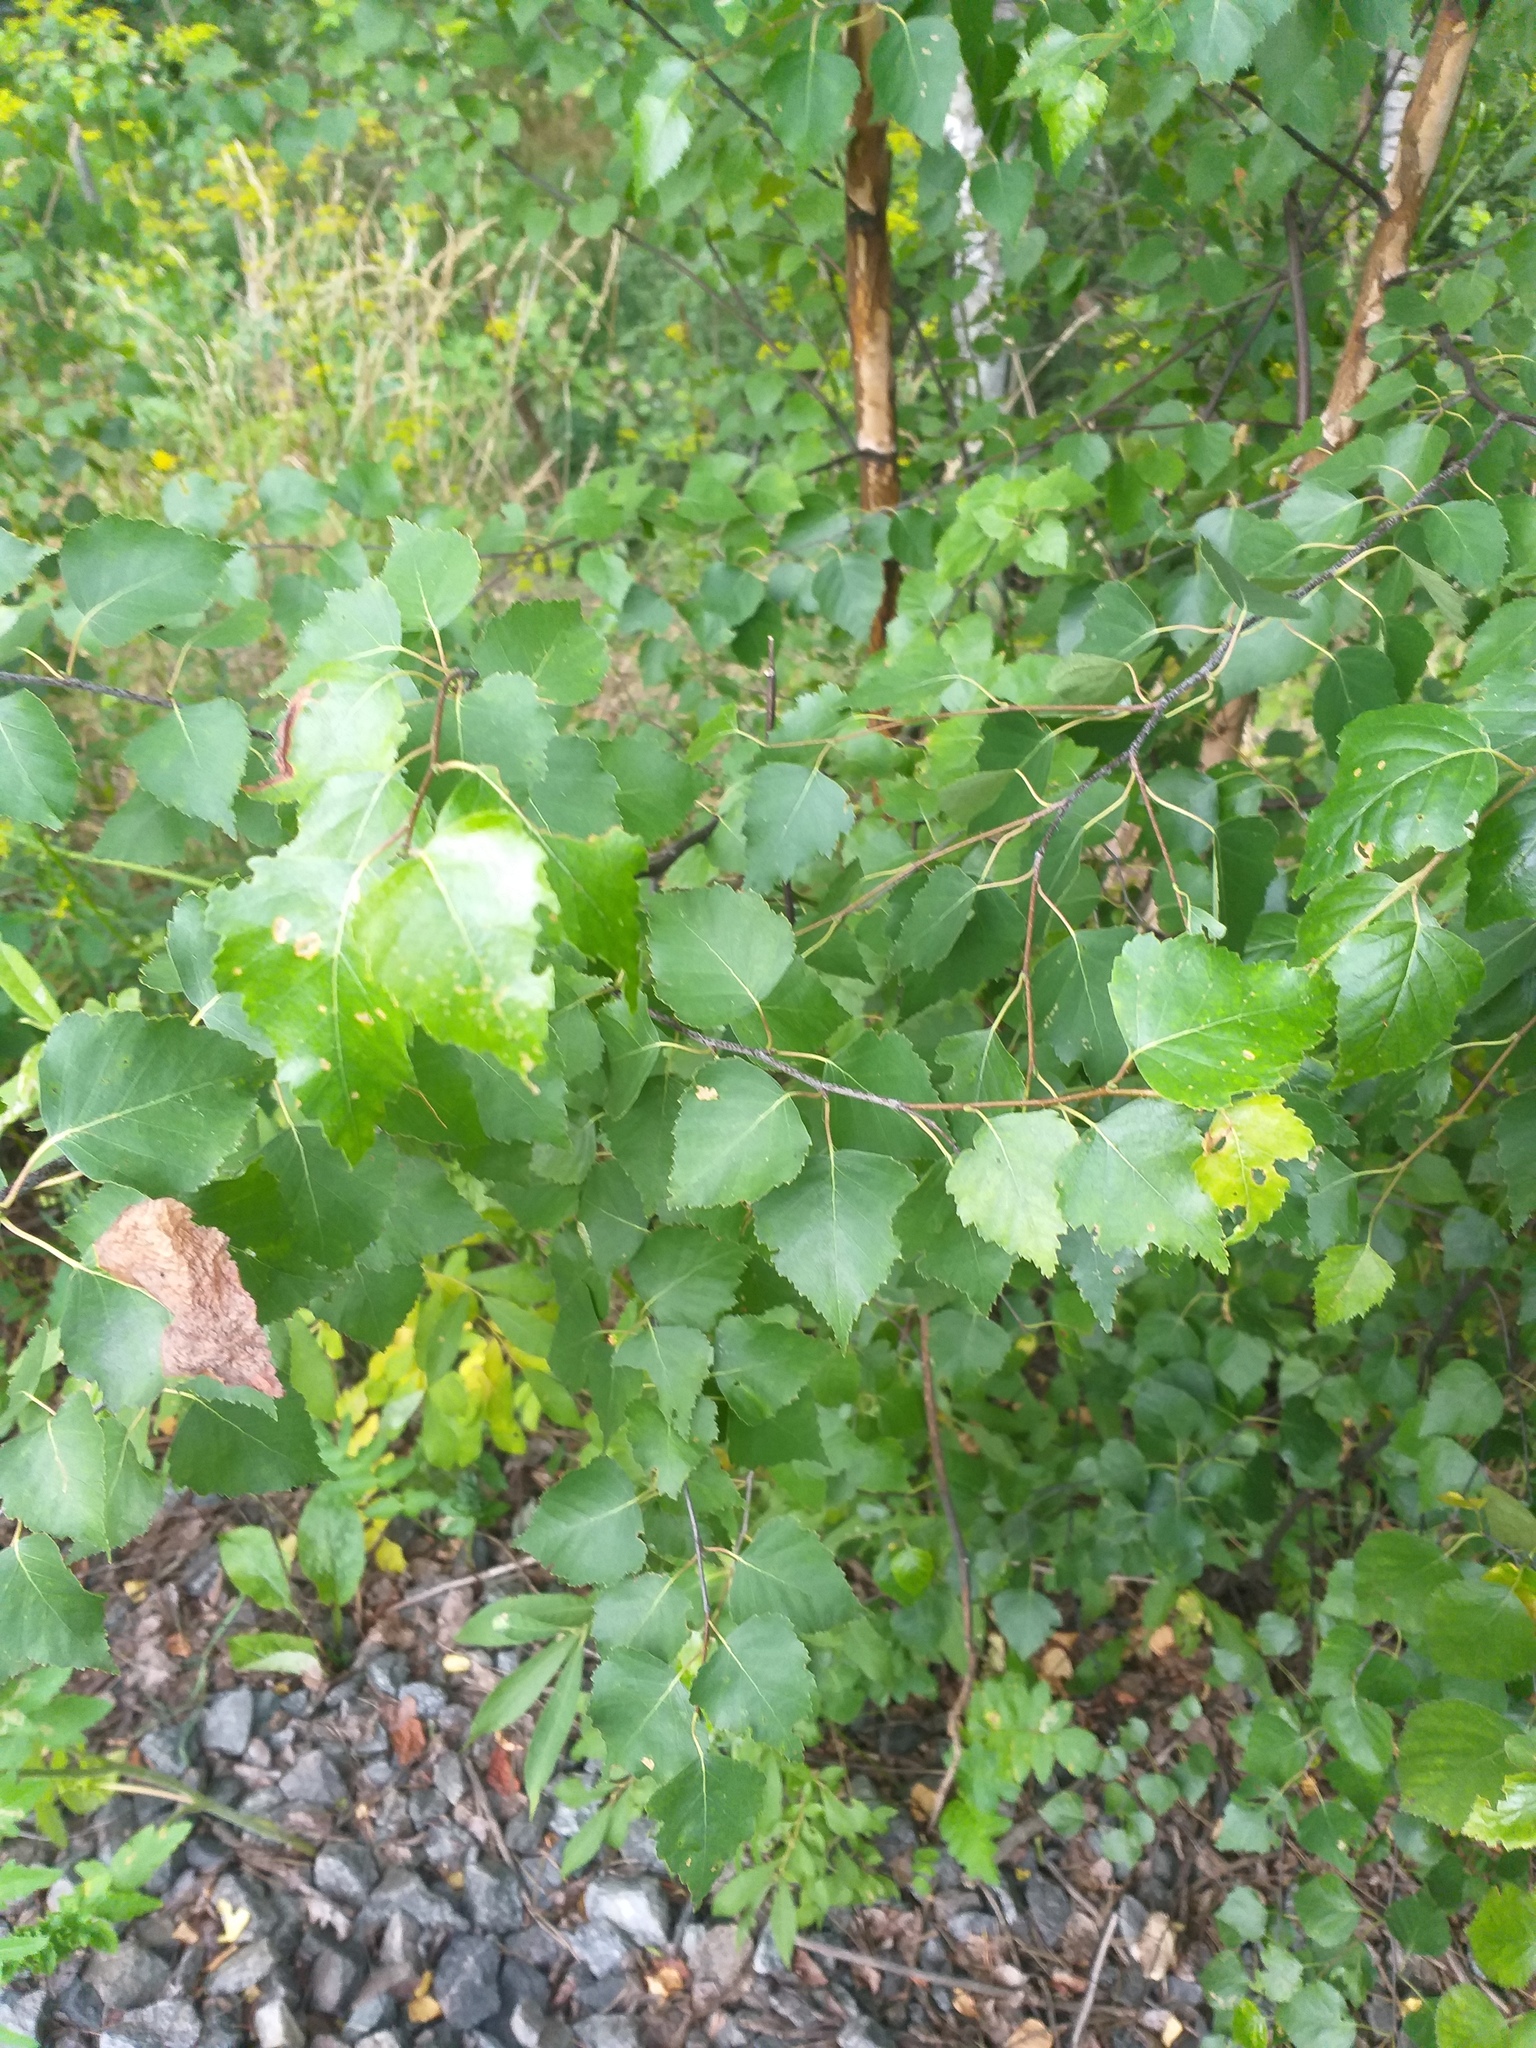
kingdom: Plantae
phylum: Tracheophyta
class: Magnoliopsida
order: Fagales
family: Betulaceae
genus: Betula
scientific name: Betula pendula
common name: Silver birch
